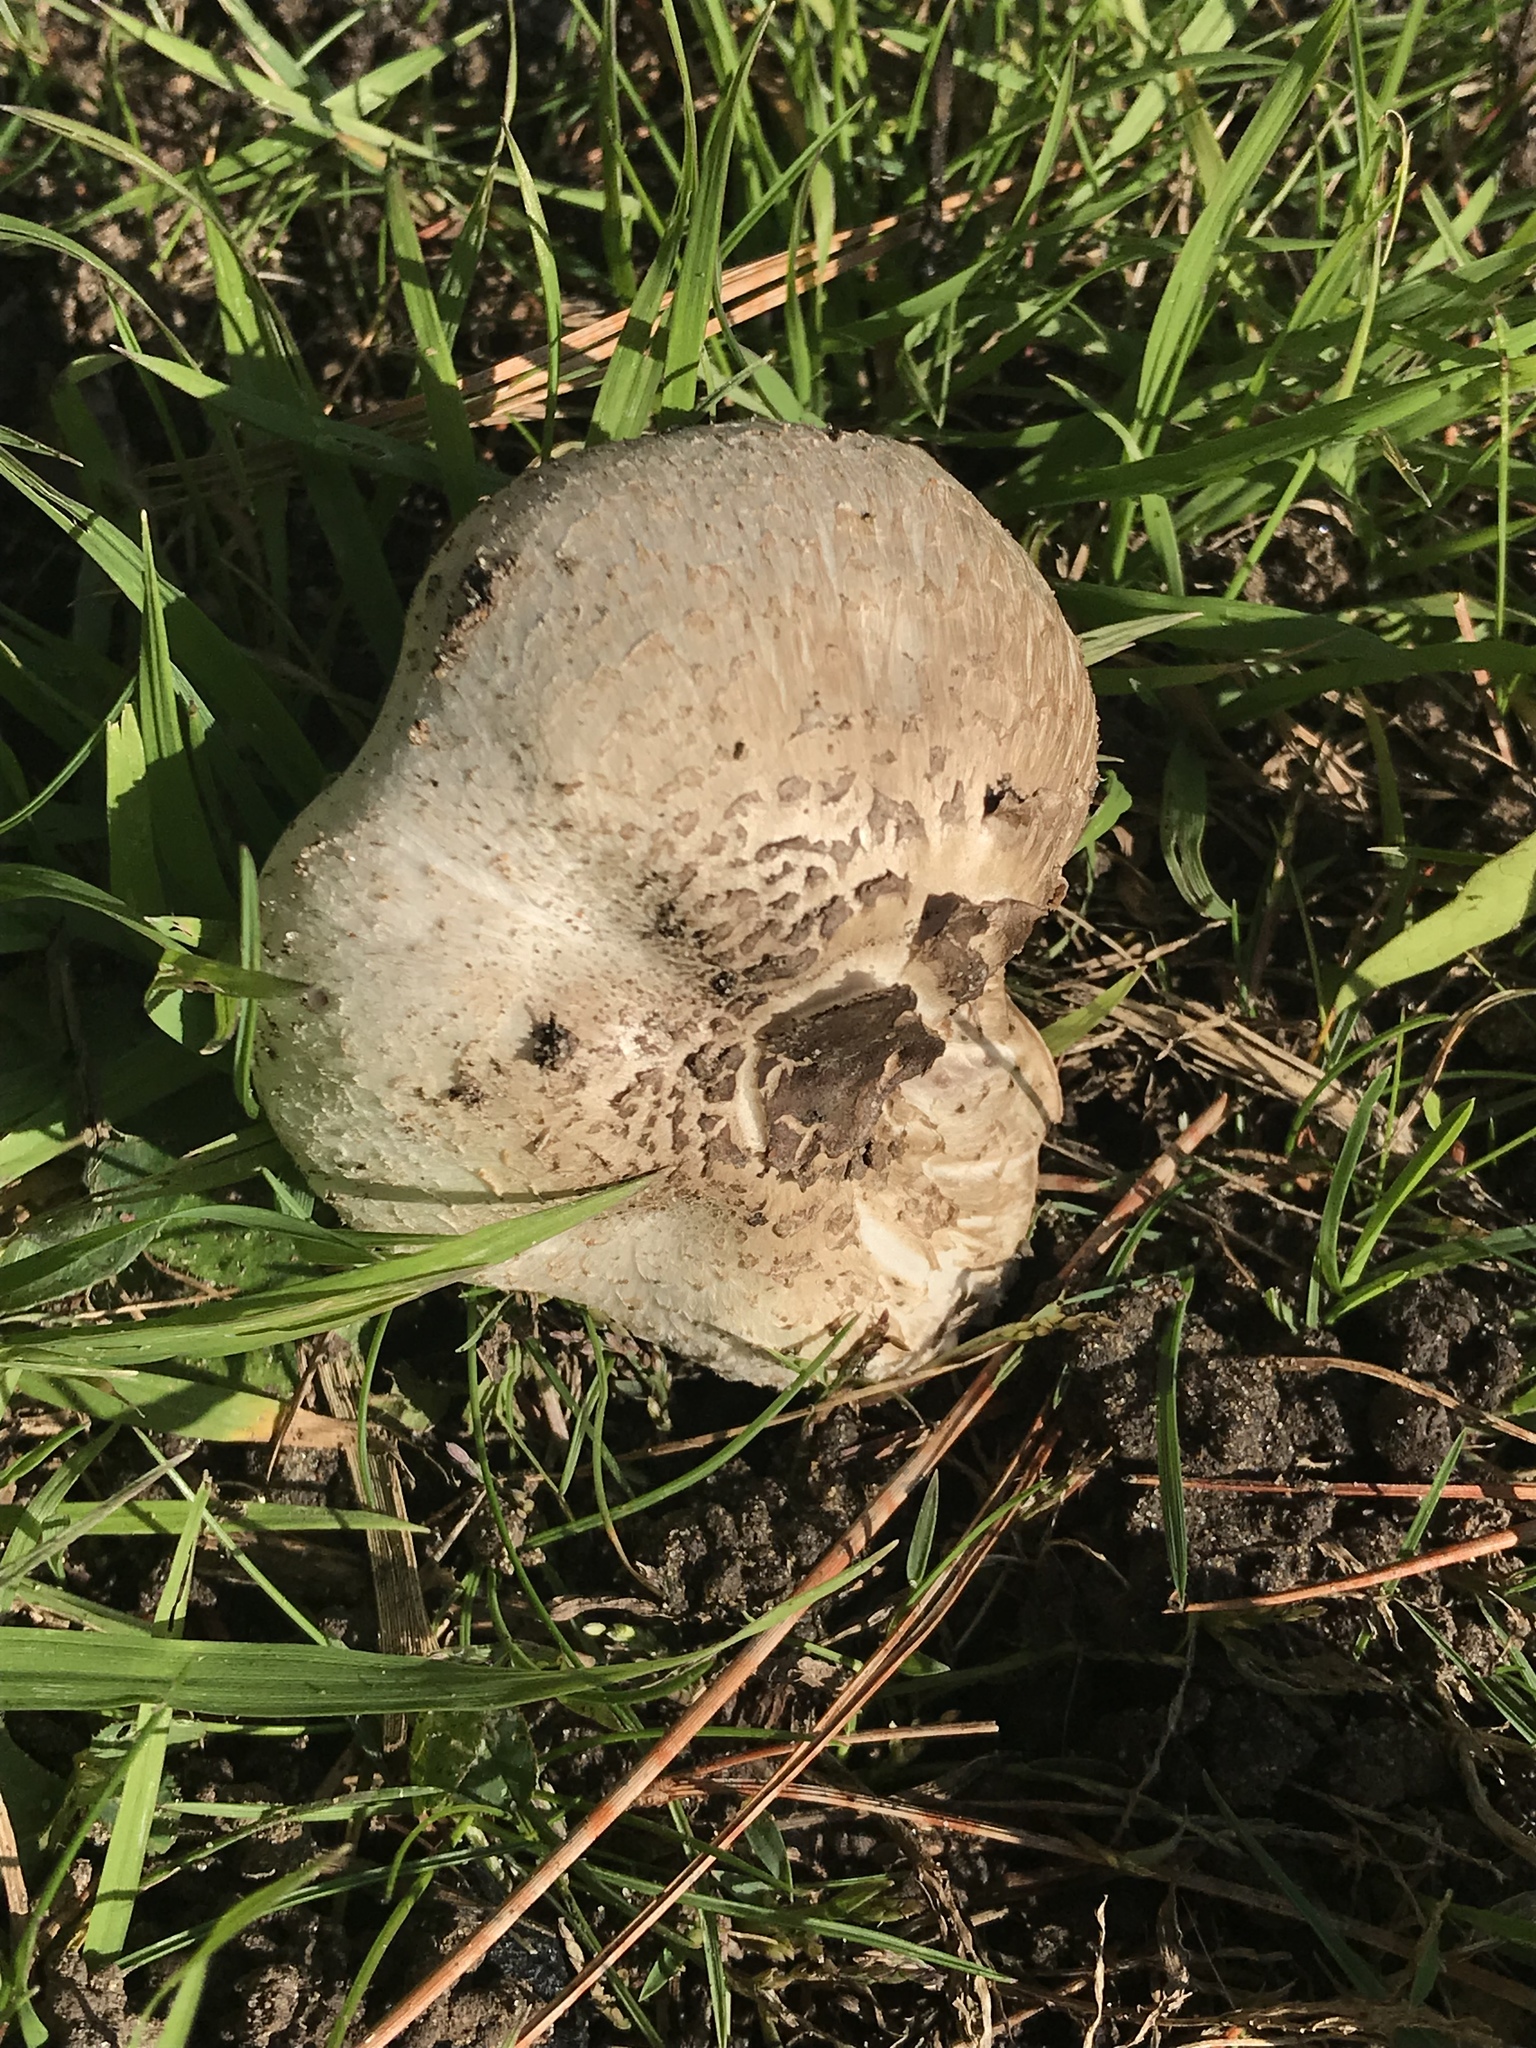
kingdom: Fungi
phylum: Basidiomycota
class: Agaricomycetes
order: Agaricales
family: Agaricaceae
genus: Agaricus
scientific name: Agaricus californicus
